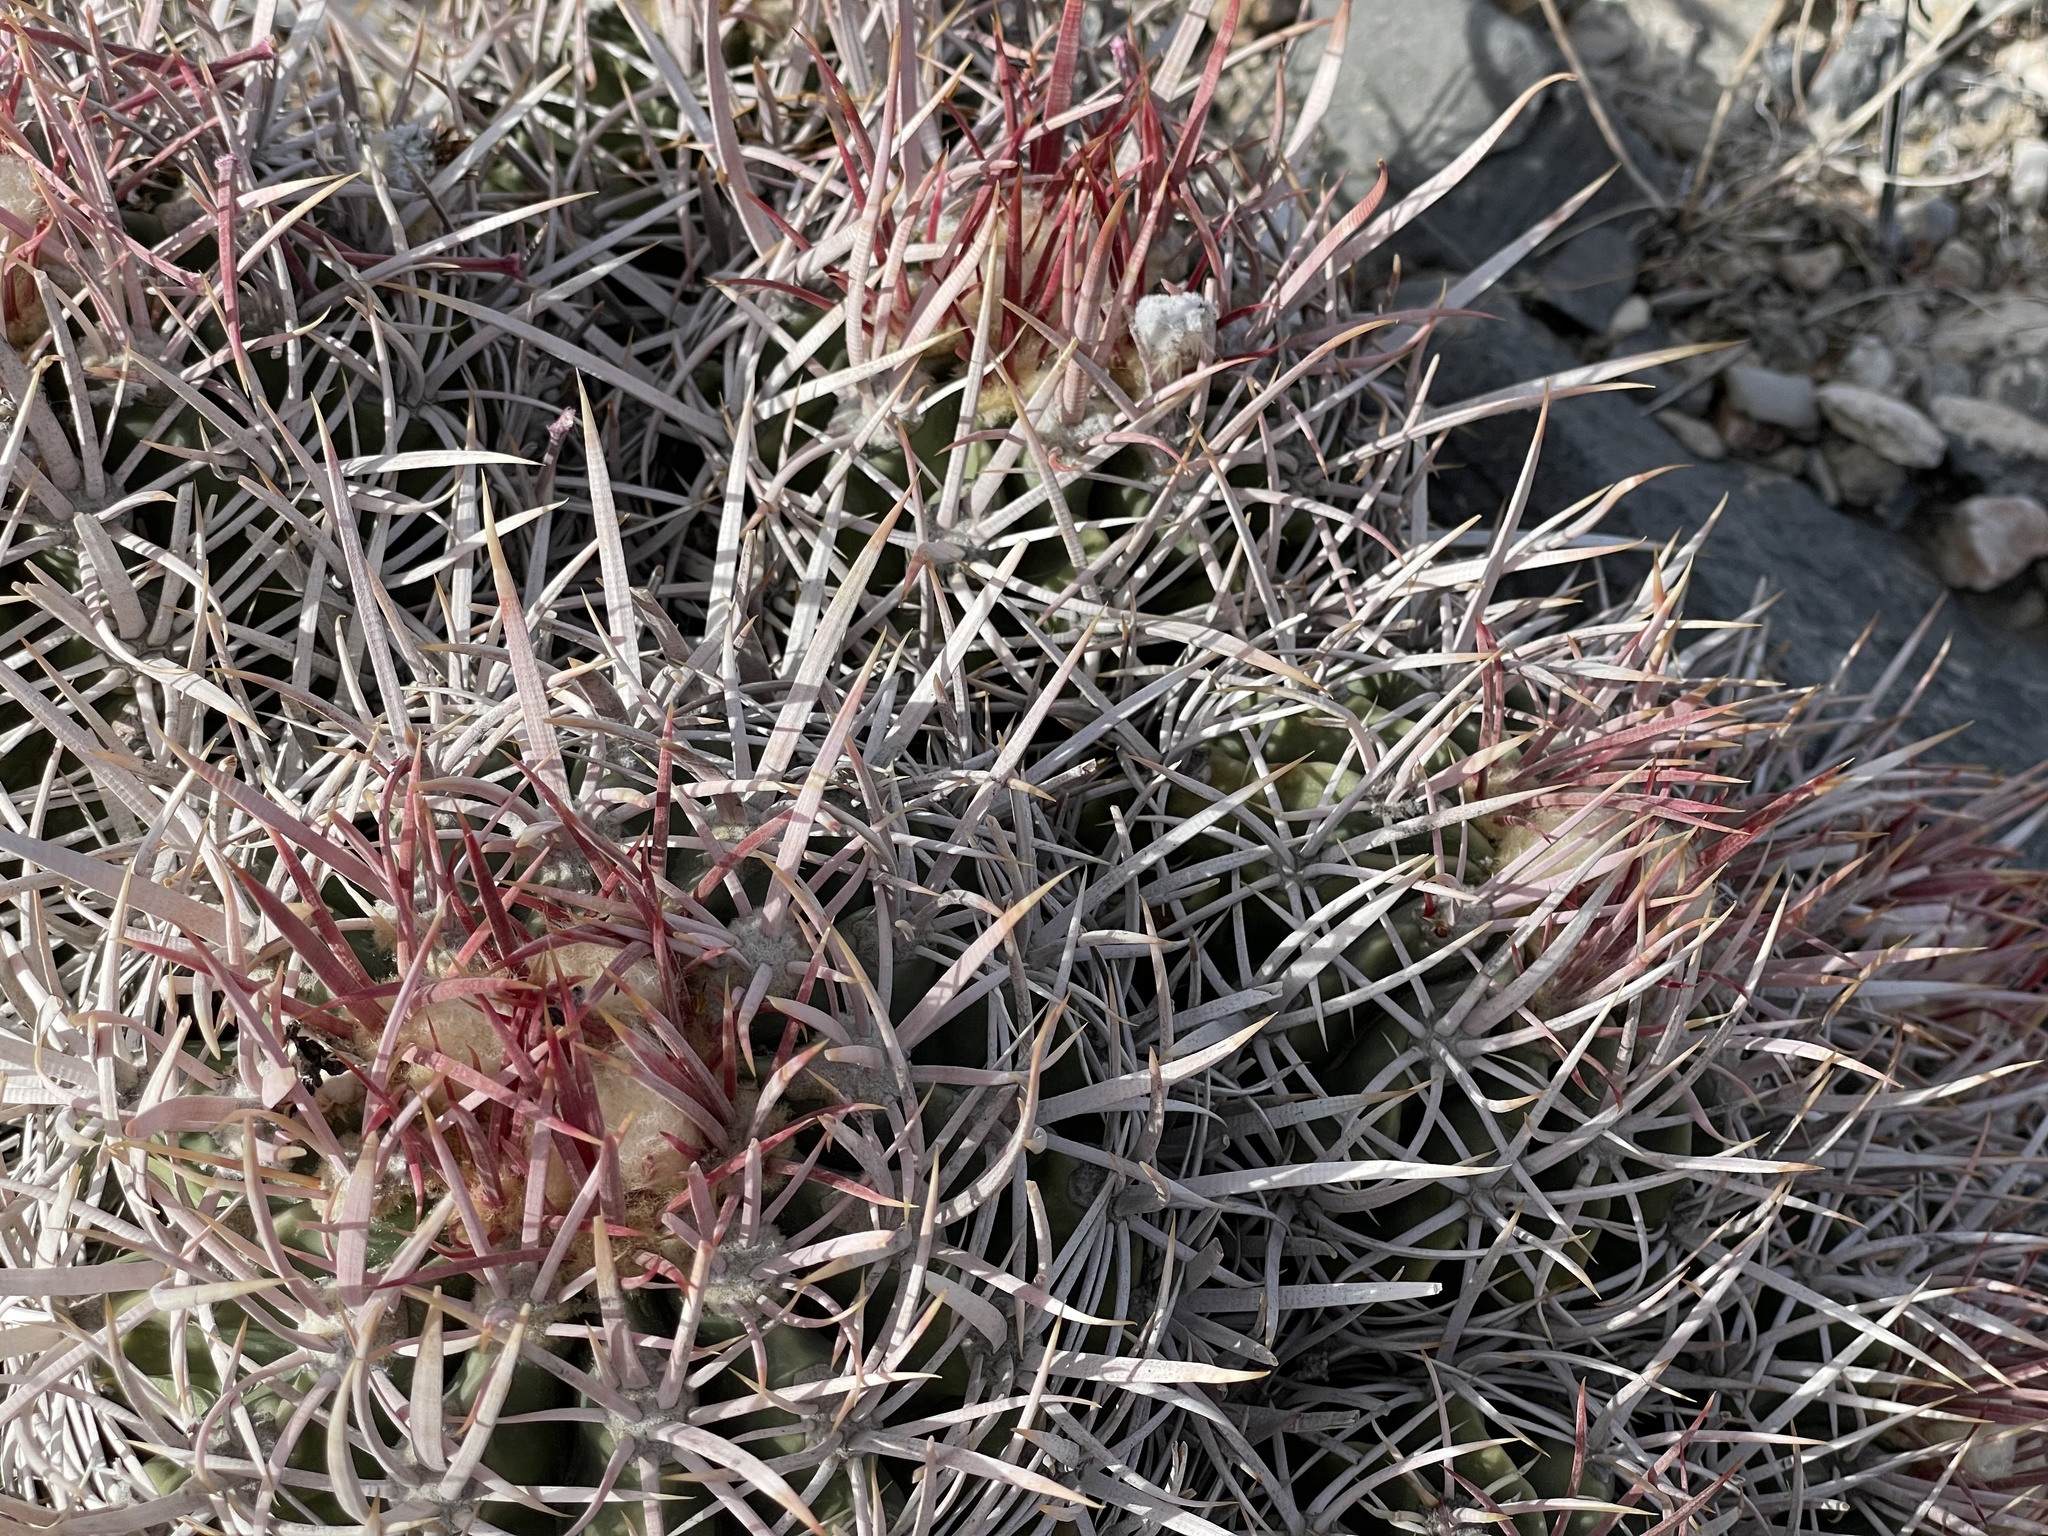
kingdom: Plantae
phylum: Tracheophyta
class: Magnoliopsida
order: Caryophyllales
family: Cactaceae
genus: Echinocactus
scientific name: Echinocactus polycephalus
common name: Cottontop cactus
